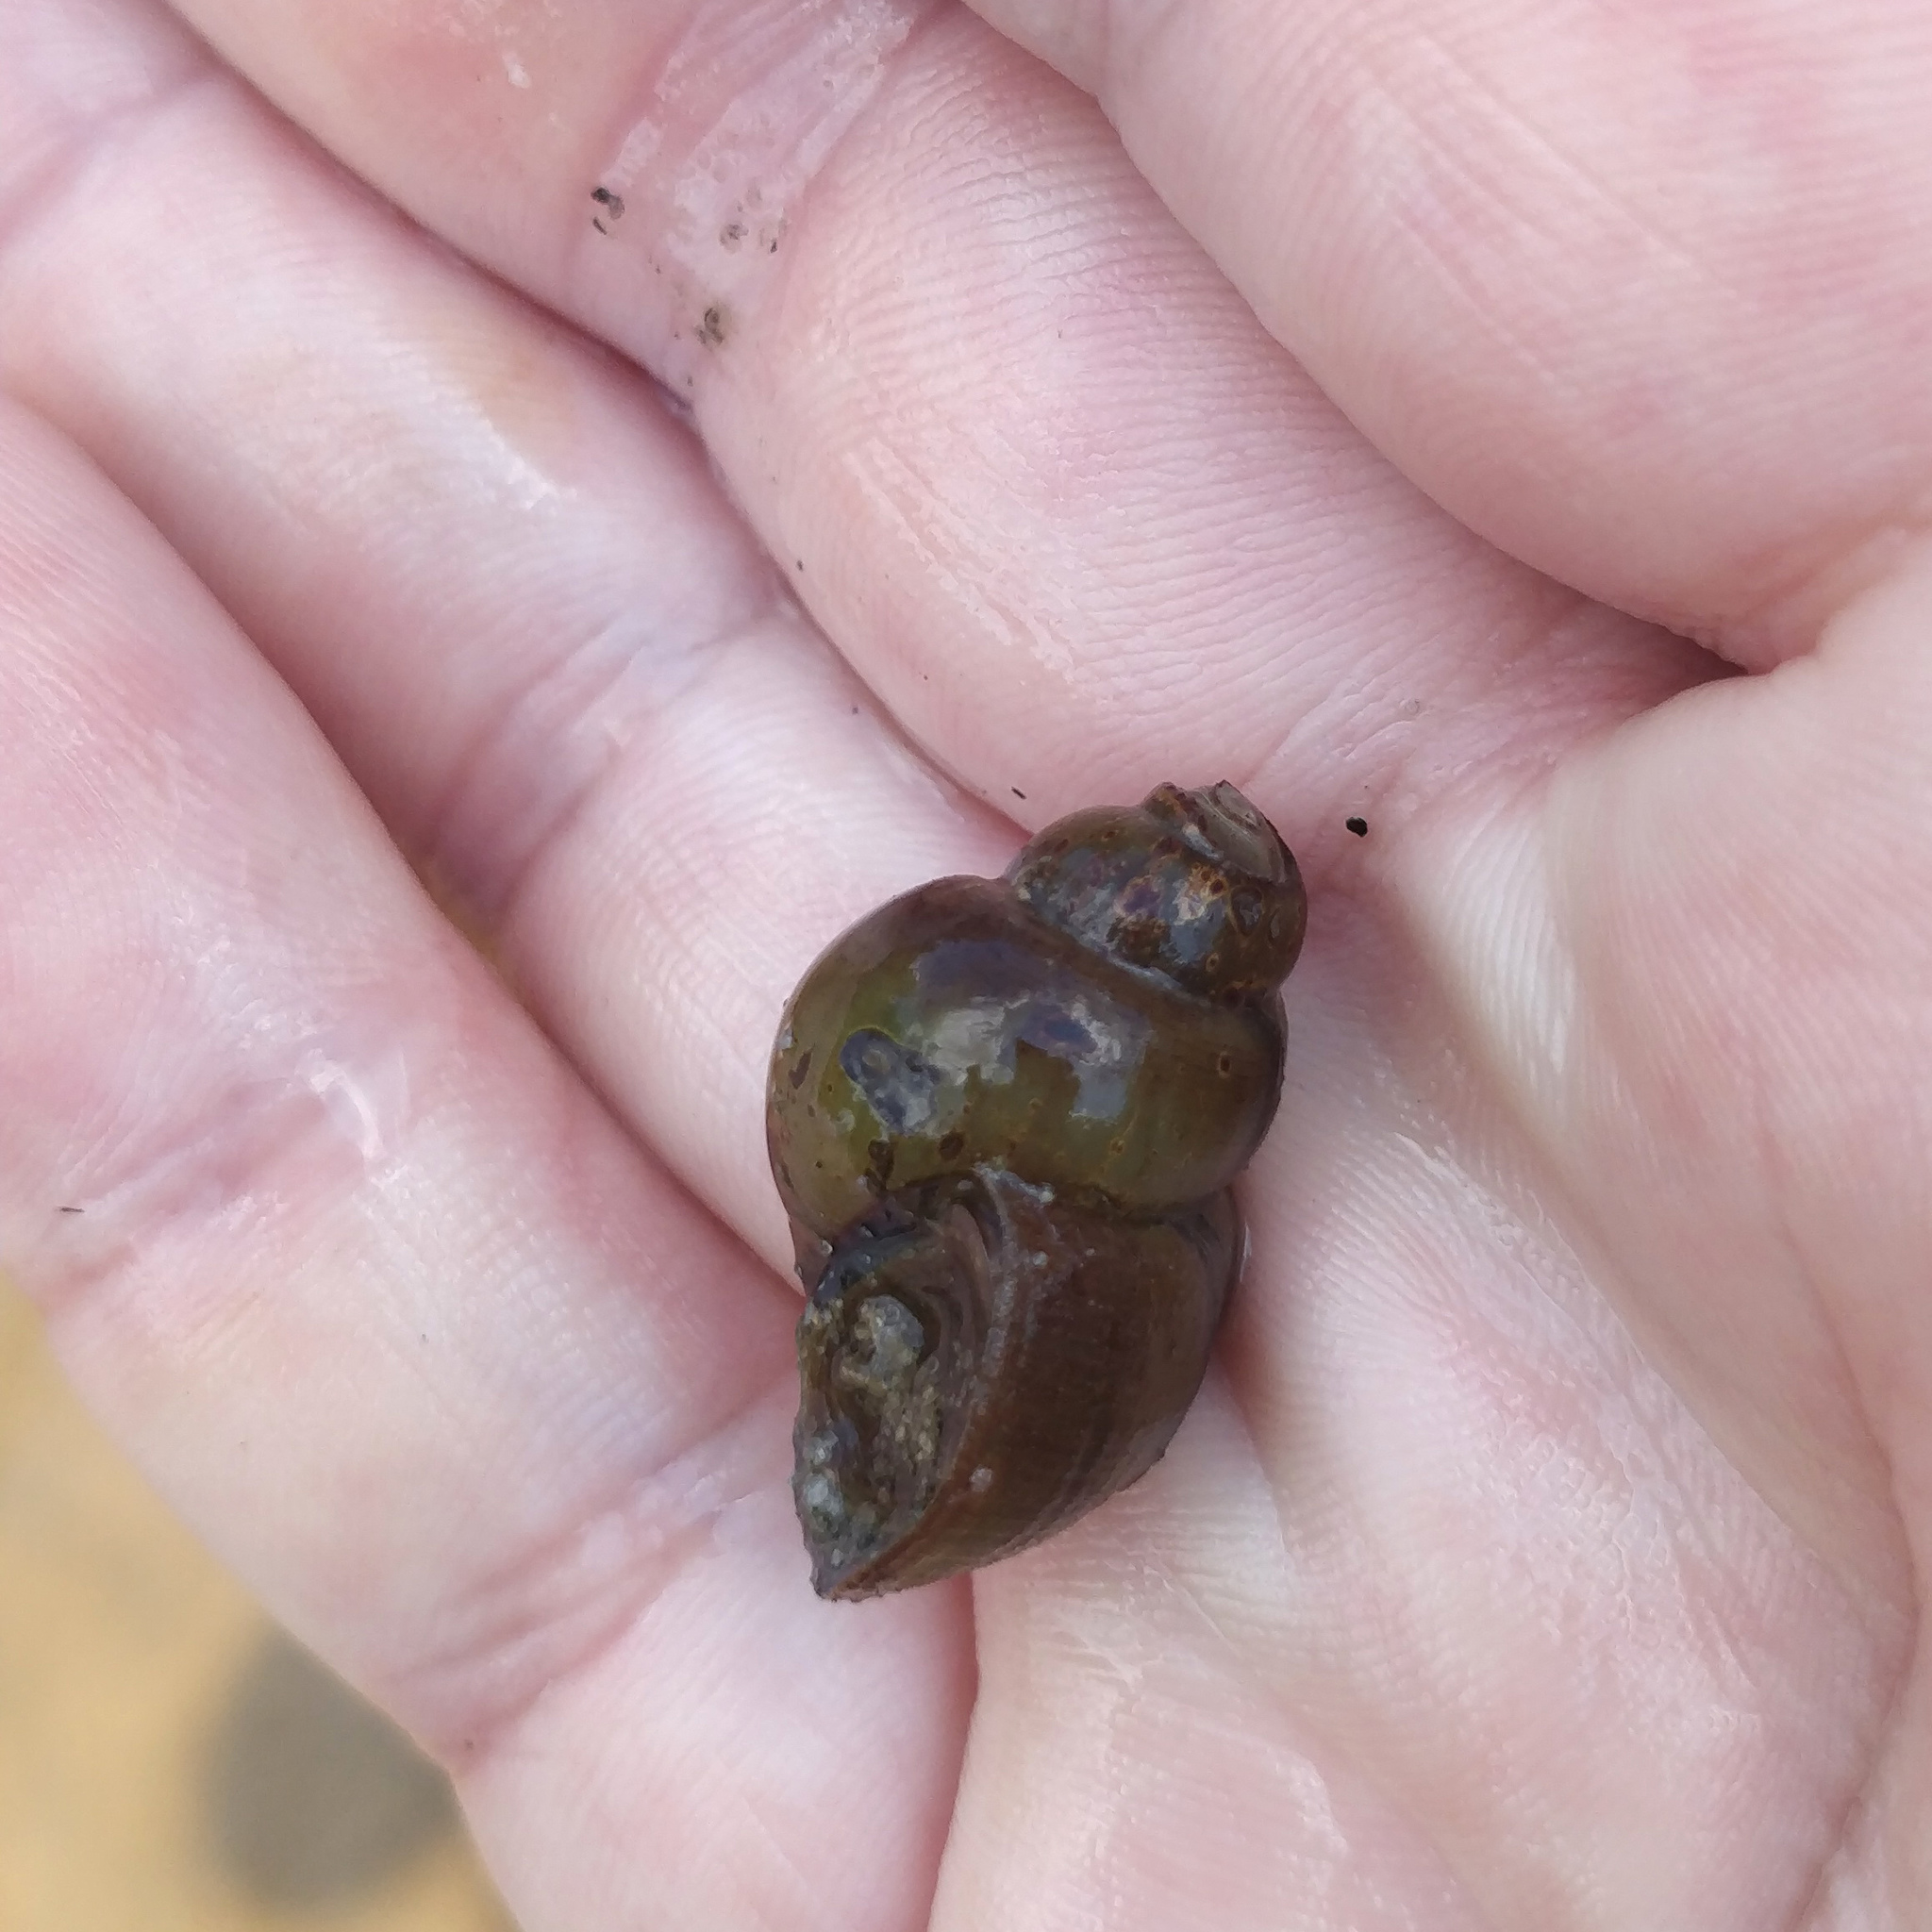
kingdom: Animalia
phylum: Mollusca
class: Gastropoda
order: Architaenioglossa
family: Viviparidae
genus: Cipangopaludina
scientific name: Cipangopaludina chinensis
